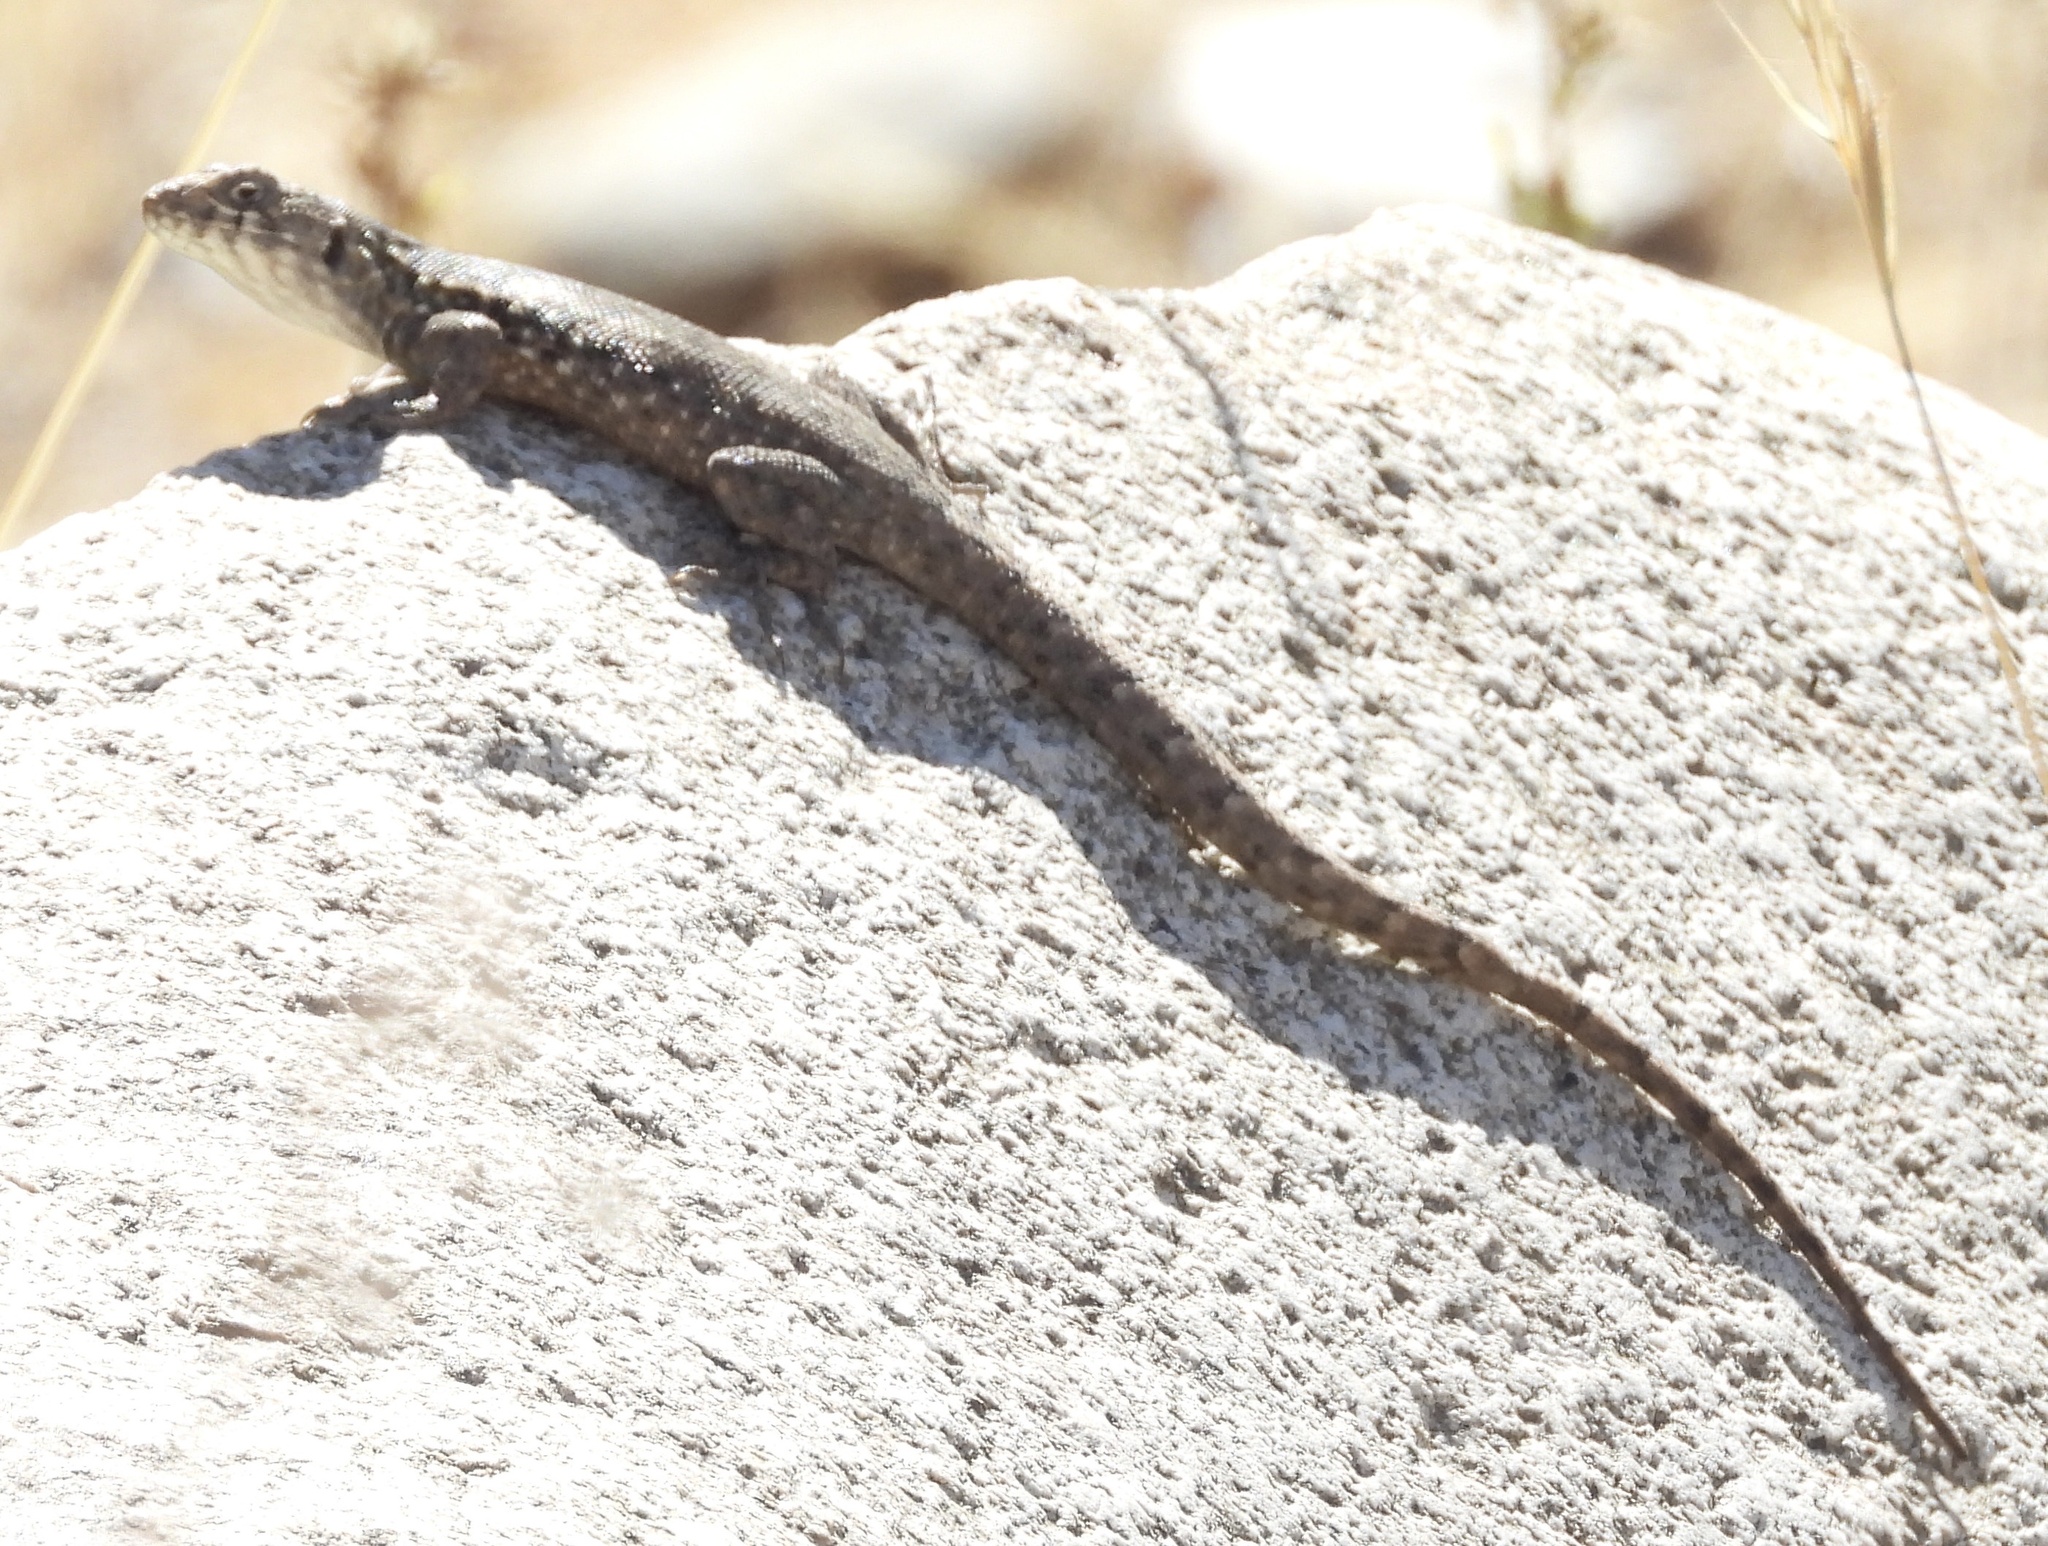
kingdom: Animalia
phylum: Chordata
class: Squamata
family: Liolaemidae
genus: Liolaemus
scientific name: Liolaemus monticola
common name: Peak tree iguana
